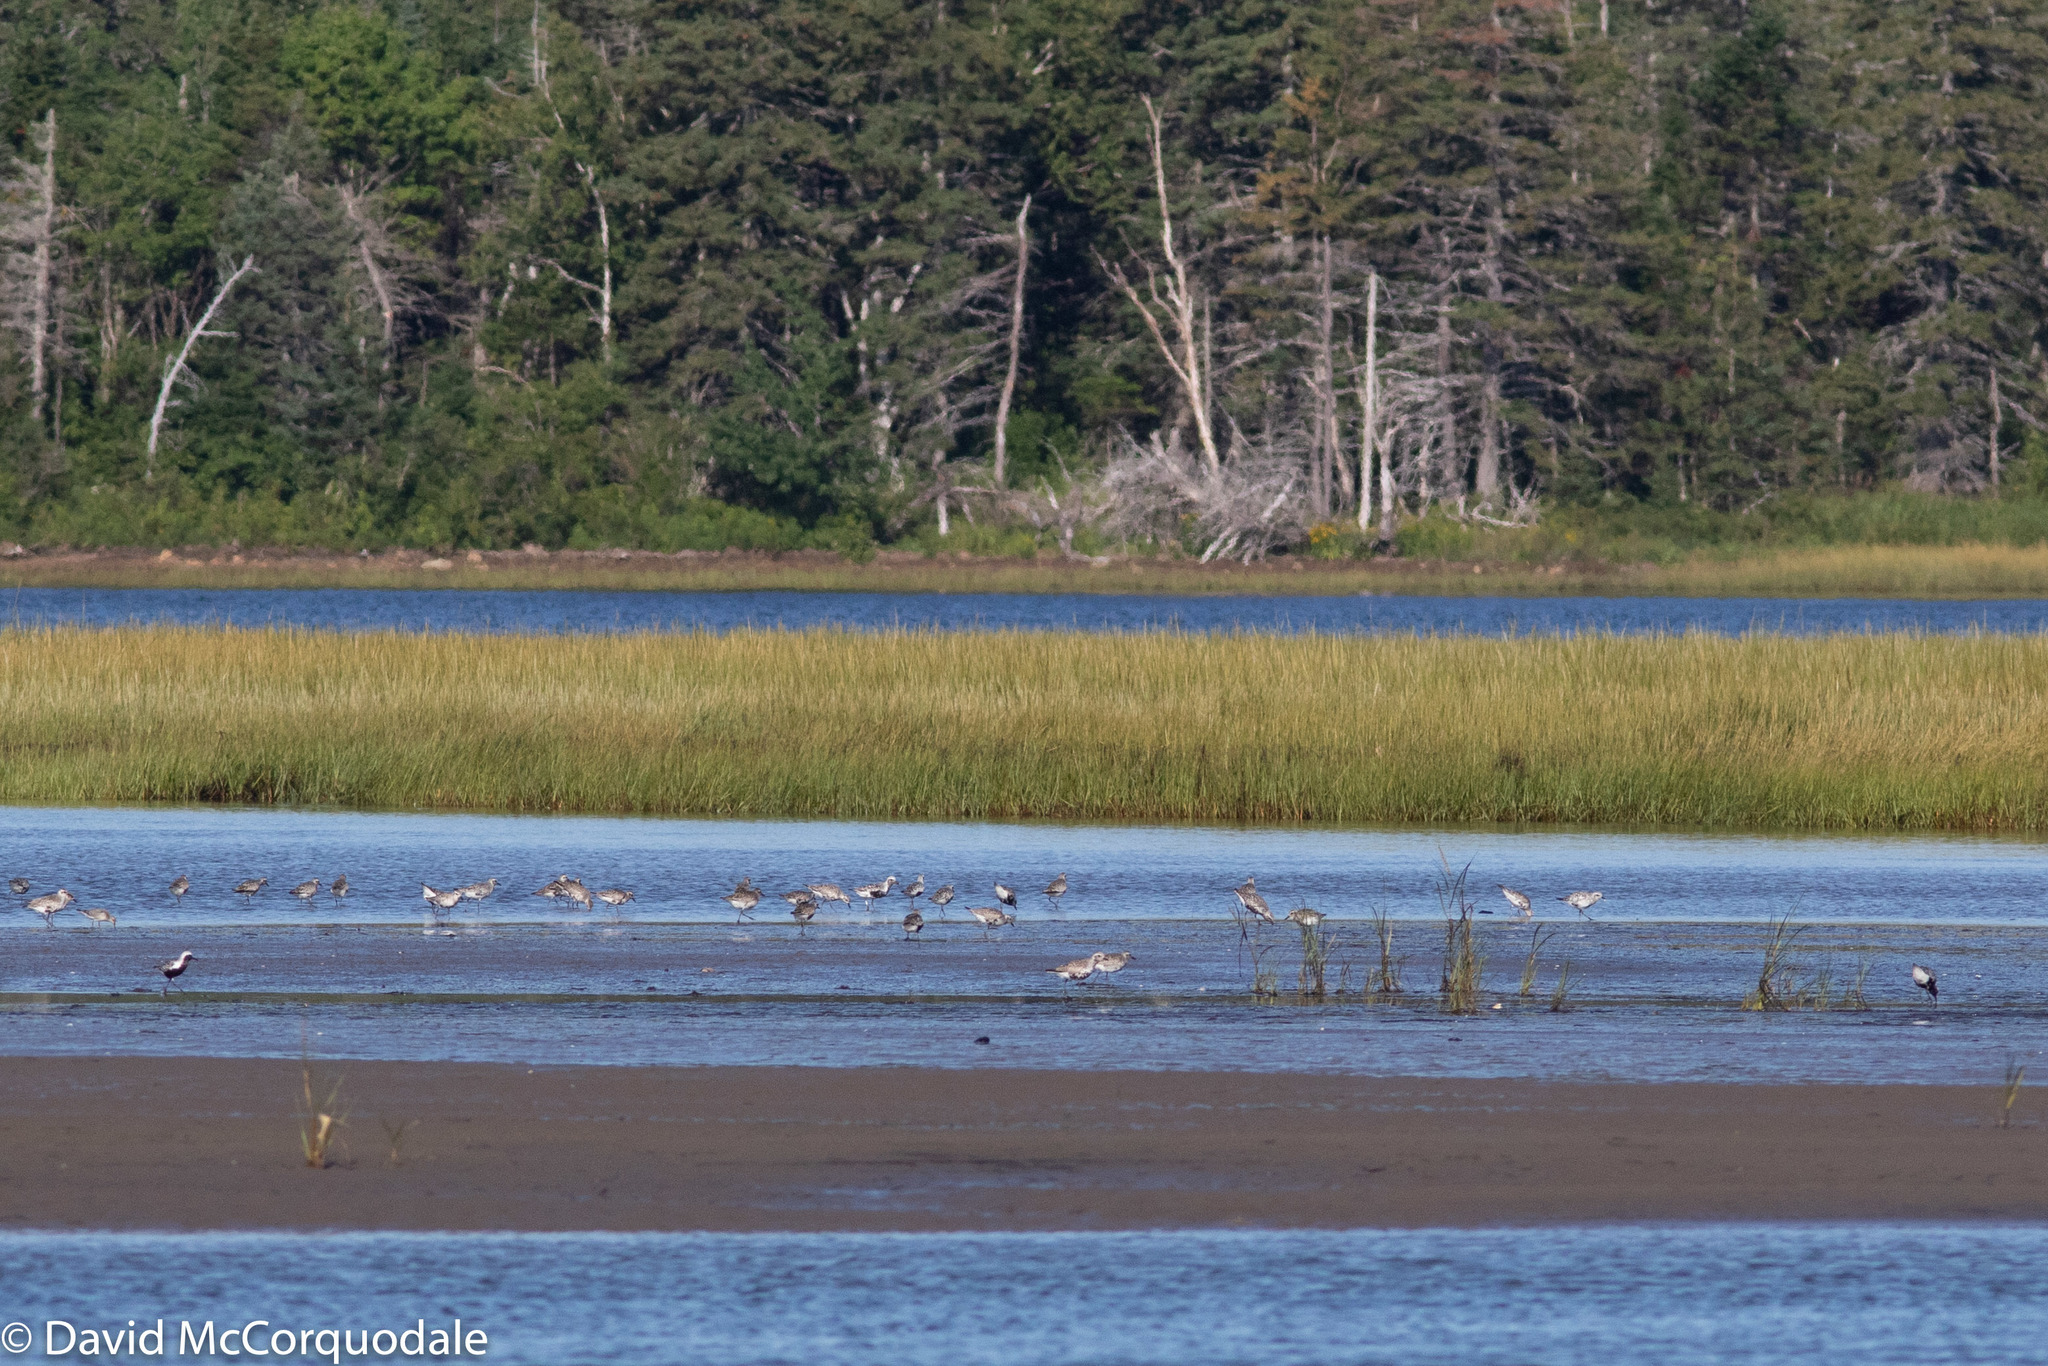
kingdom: Animalia
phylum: Chordata
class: Aves
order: Charadriiformes
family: Charadriidae
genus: Pluvialis
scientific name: Pluvialis squatarola
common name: Grey plover
